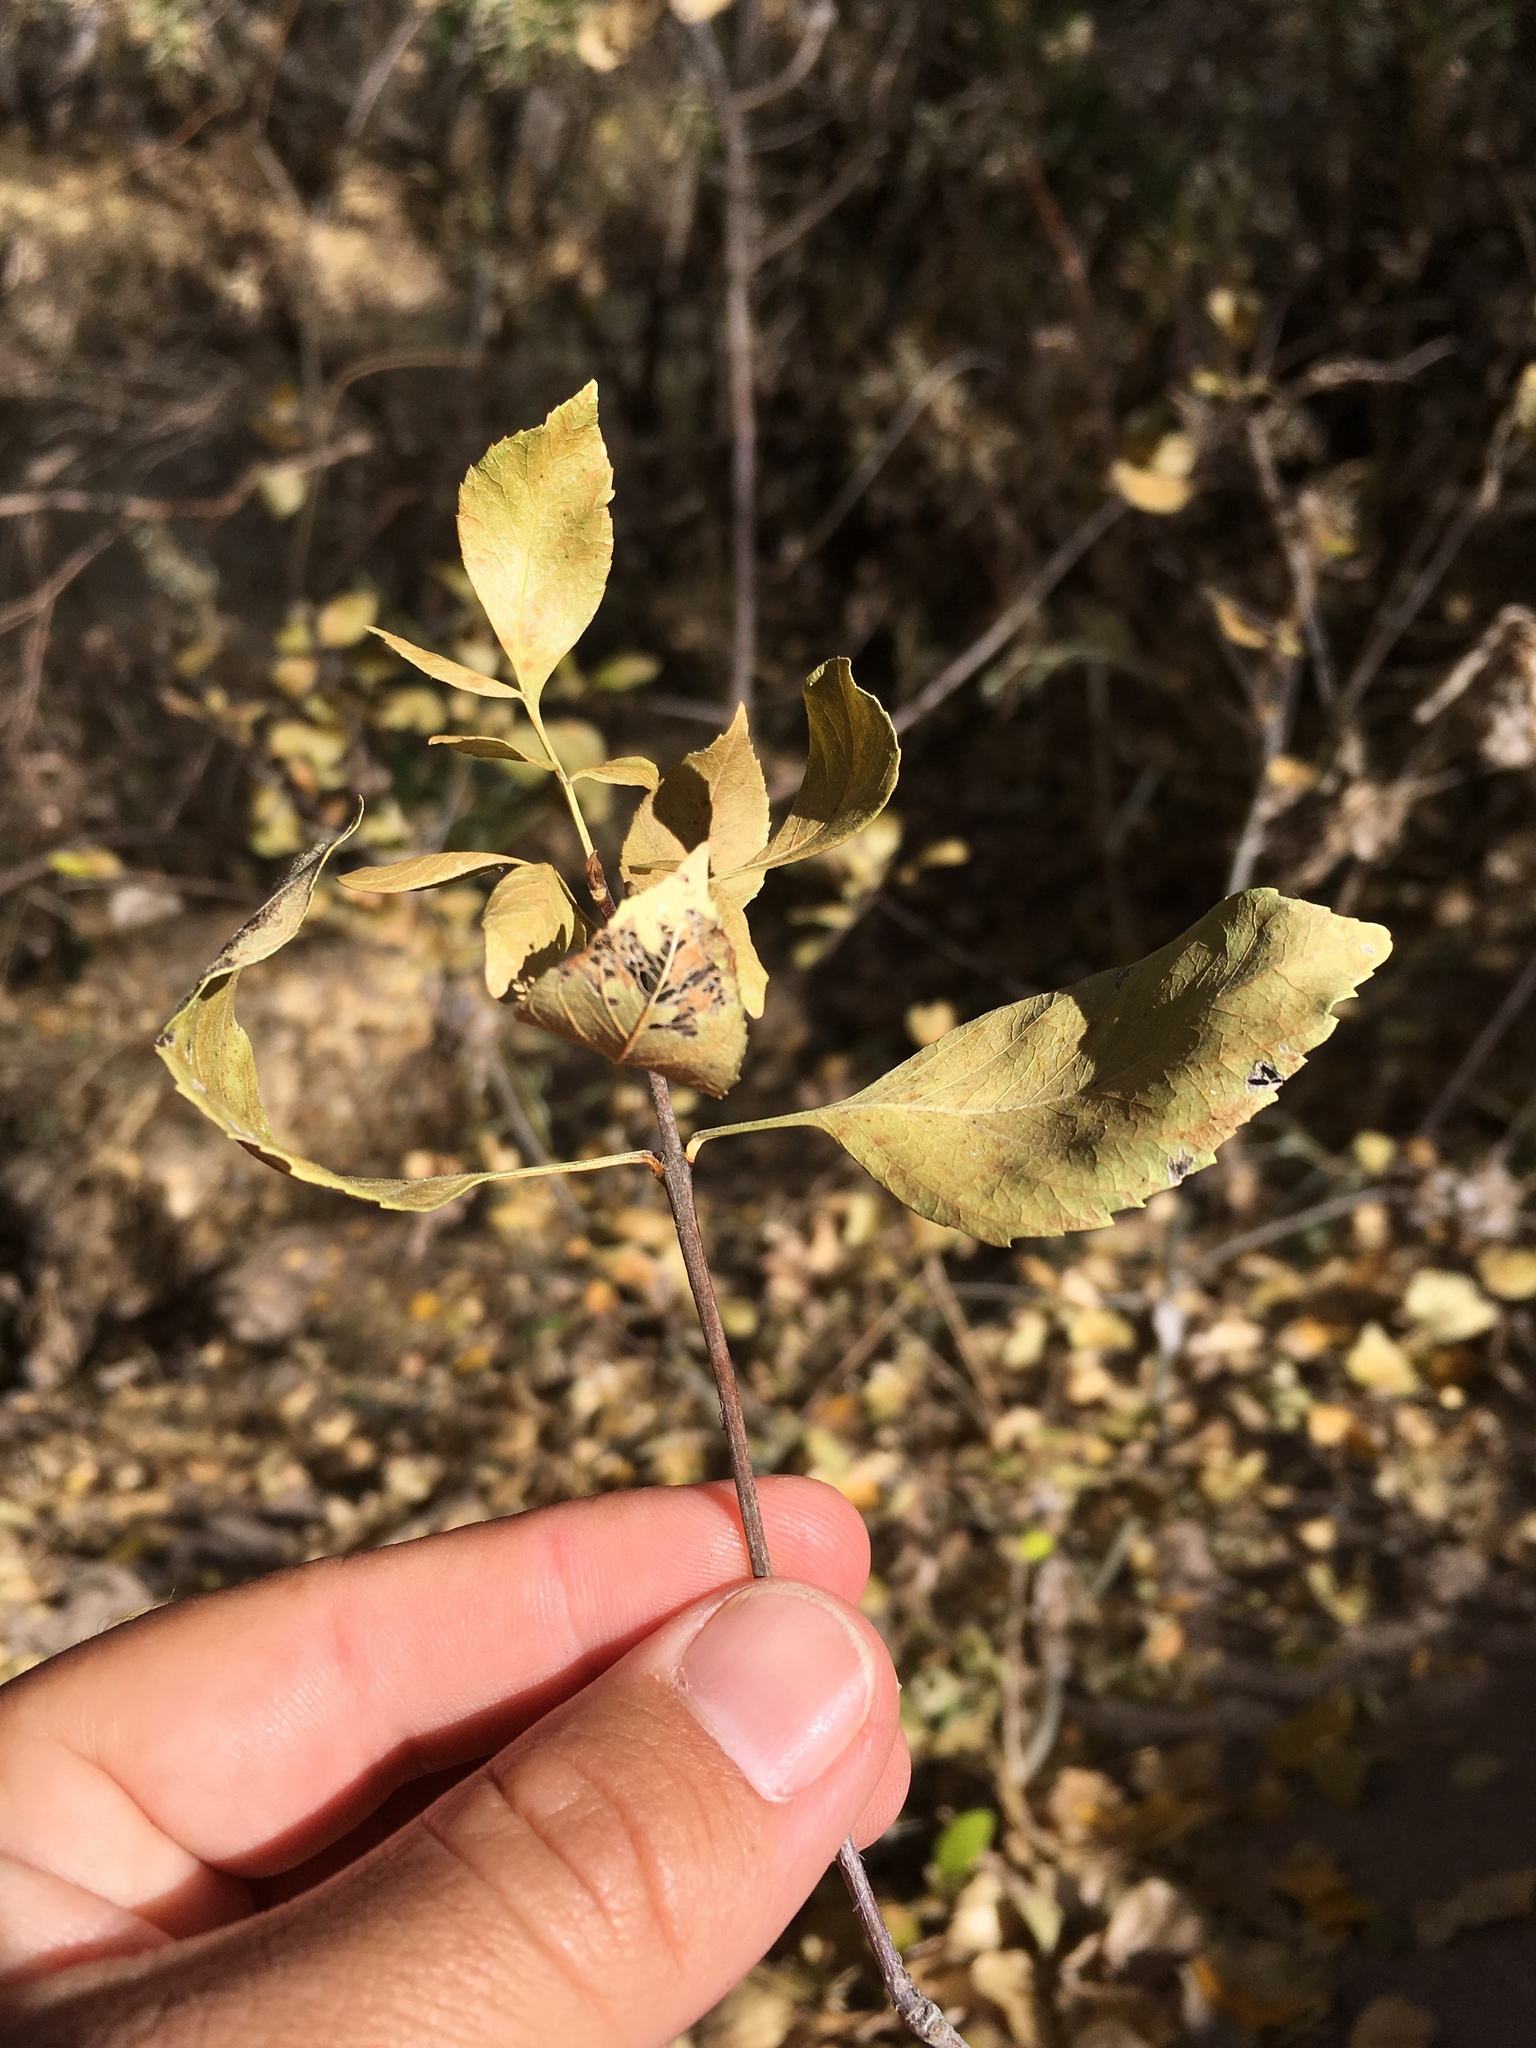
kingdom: Plantae
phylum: Tracheophyta
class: Magnoliopsida
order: Lamiales
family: Oleaceae
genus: Fraxinus
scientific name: Fraxinus velutina
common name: Arizon ash
